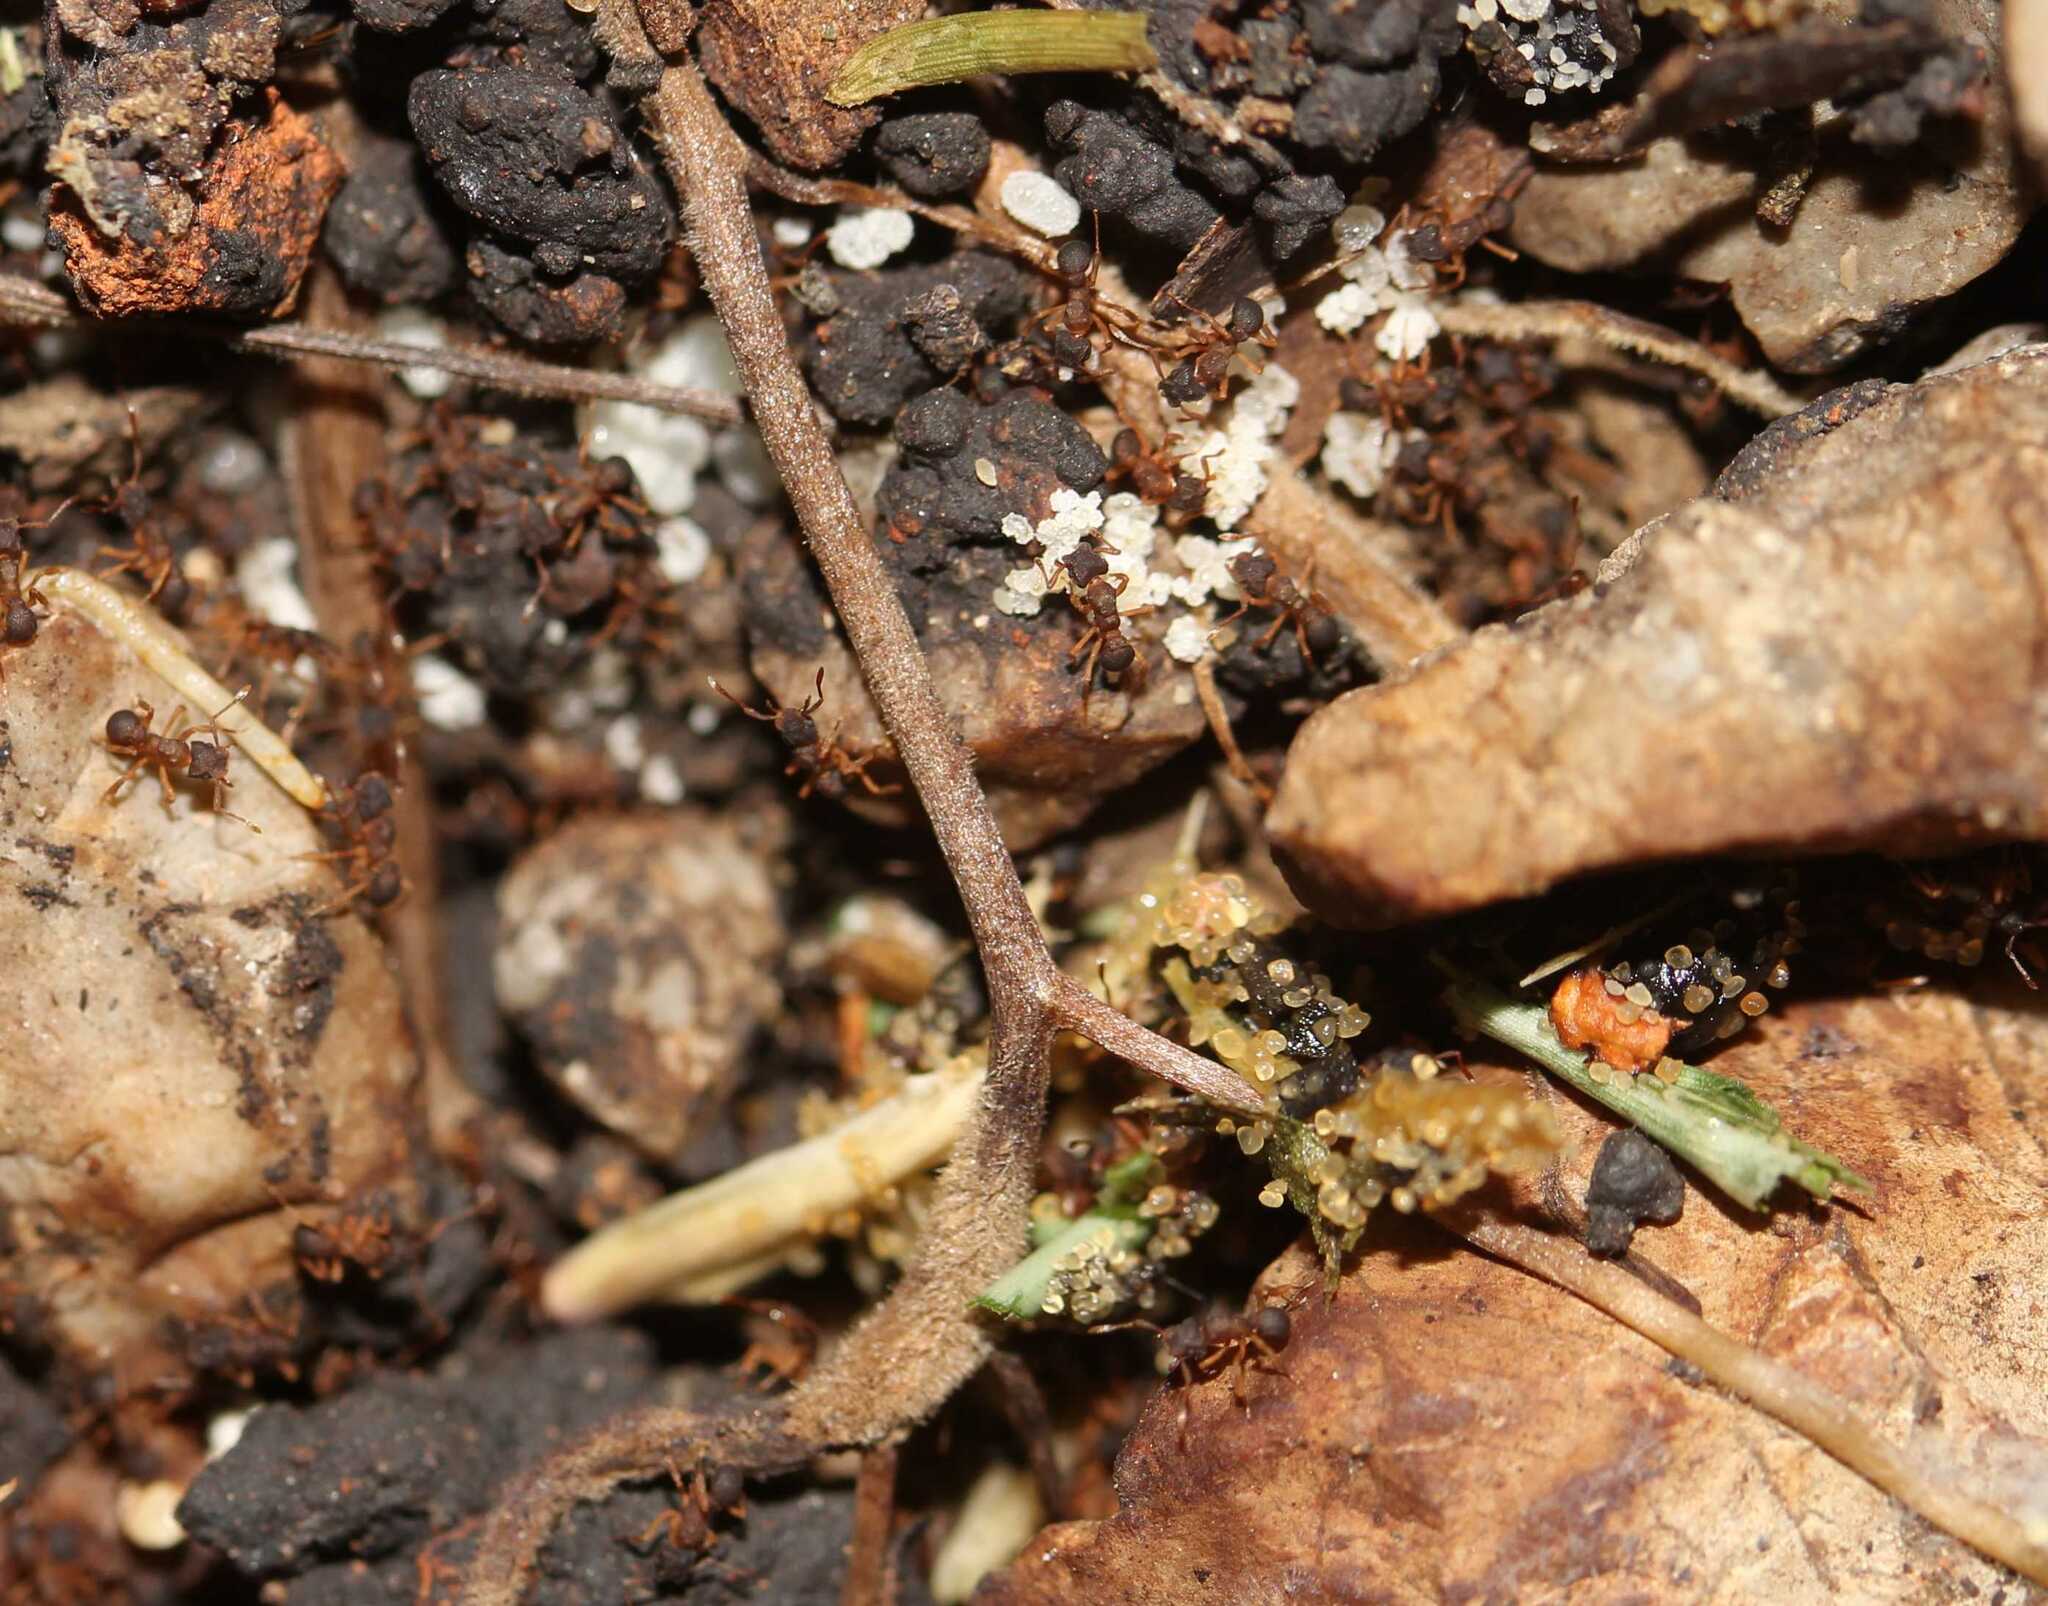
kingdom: Animalia
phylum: Arthropoda
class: Insecta
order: Hymenoptera
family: Formicidae
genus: Cyphomyrmex
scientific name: Cyphomyrmex
